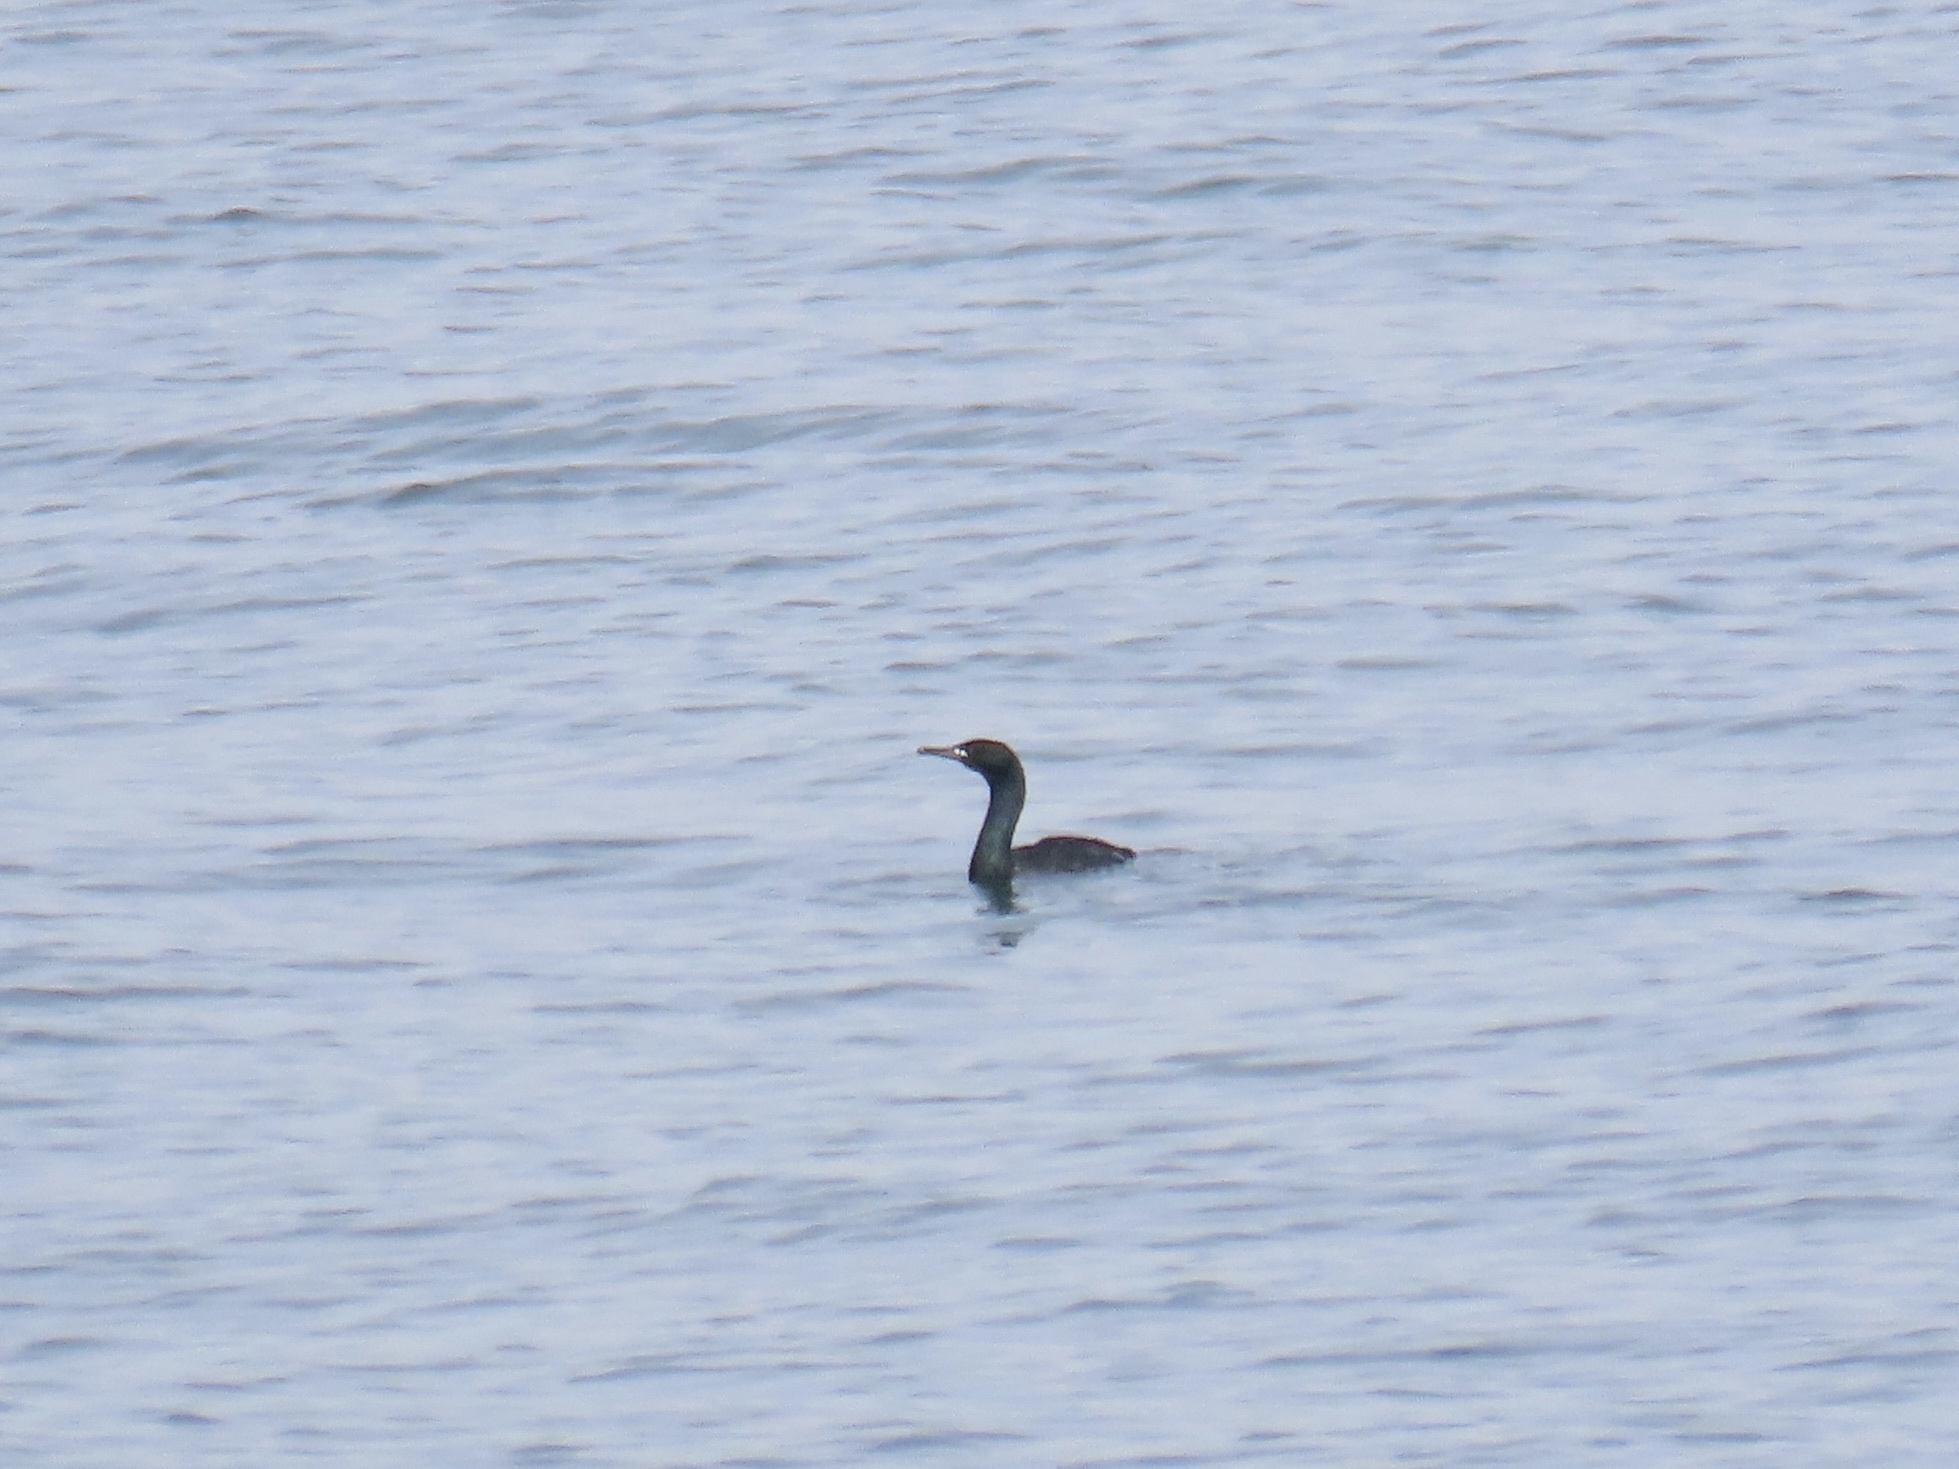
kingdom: Animalia
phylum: Chordata
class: Aves
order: Suliformes
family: Phalacrocoracidae
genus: Phalacrocorax
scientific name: Phalacrocorax pelagicus
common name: Pelagic cormorant
